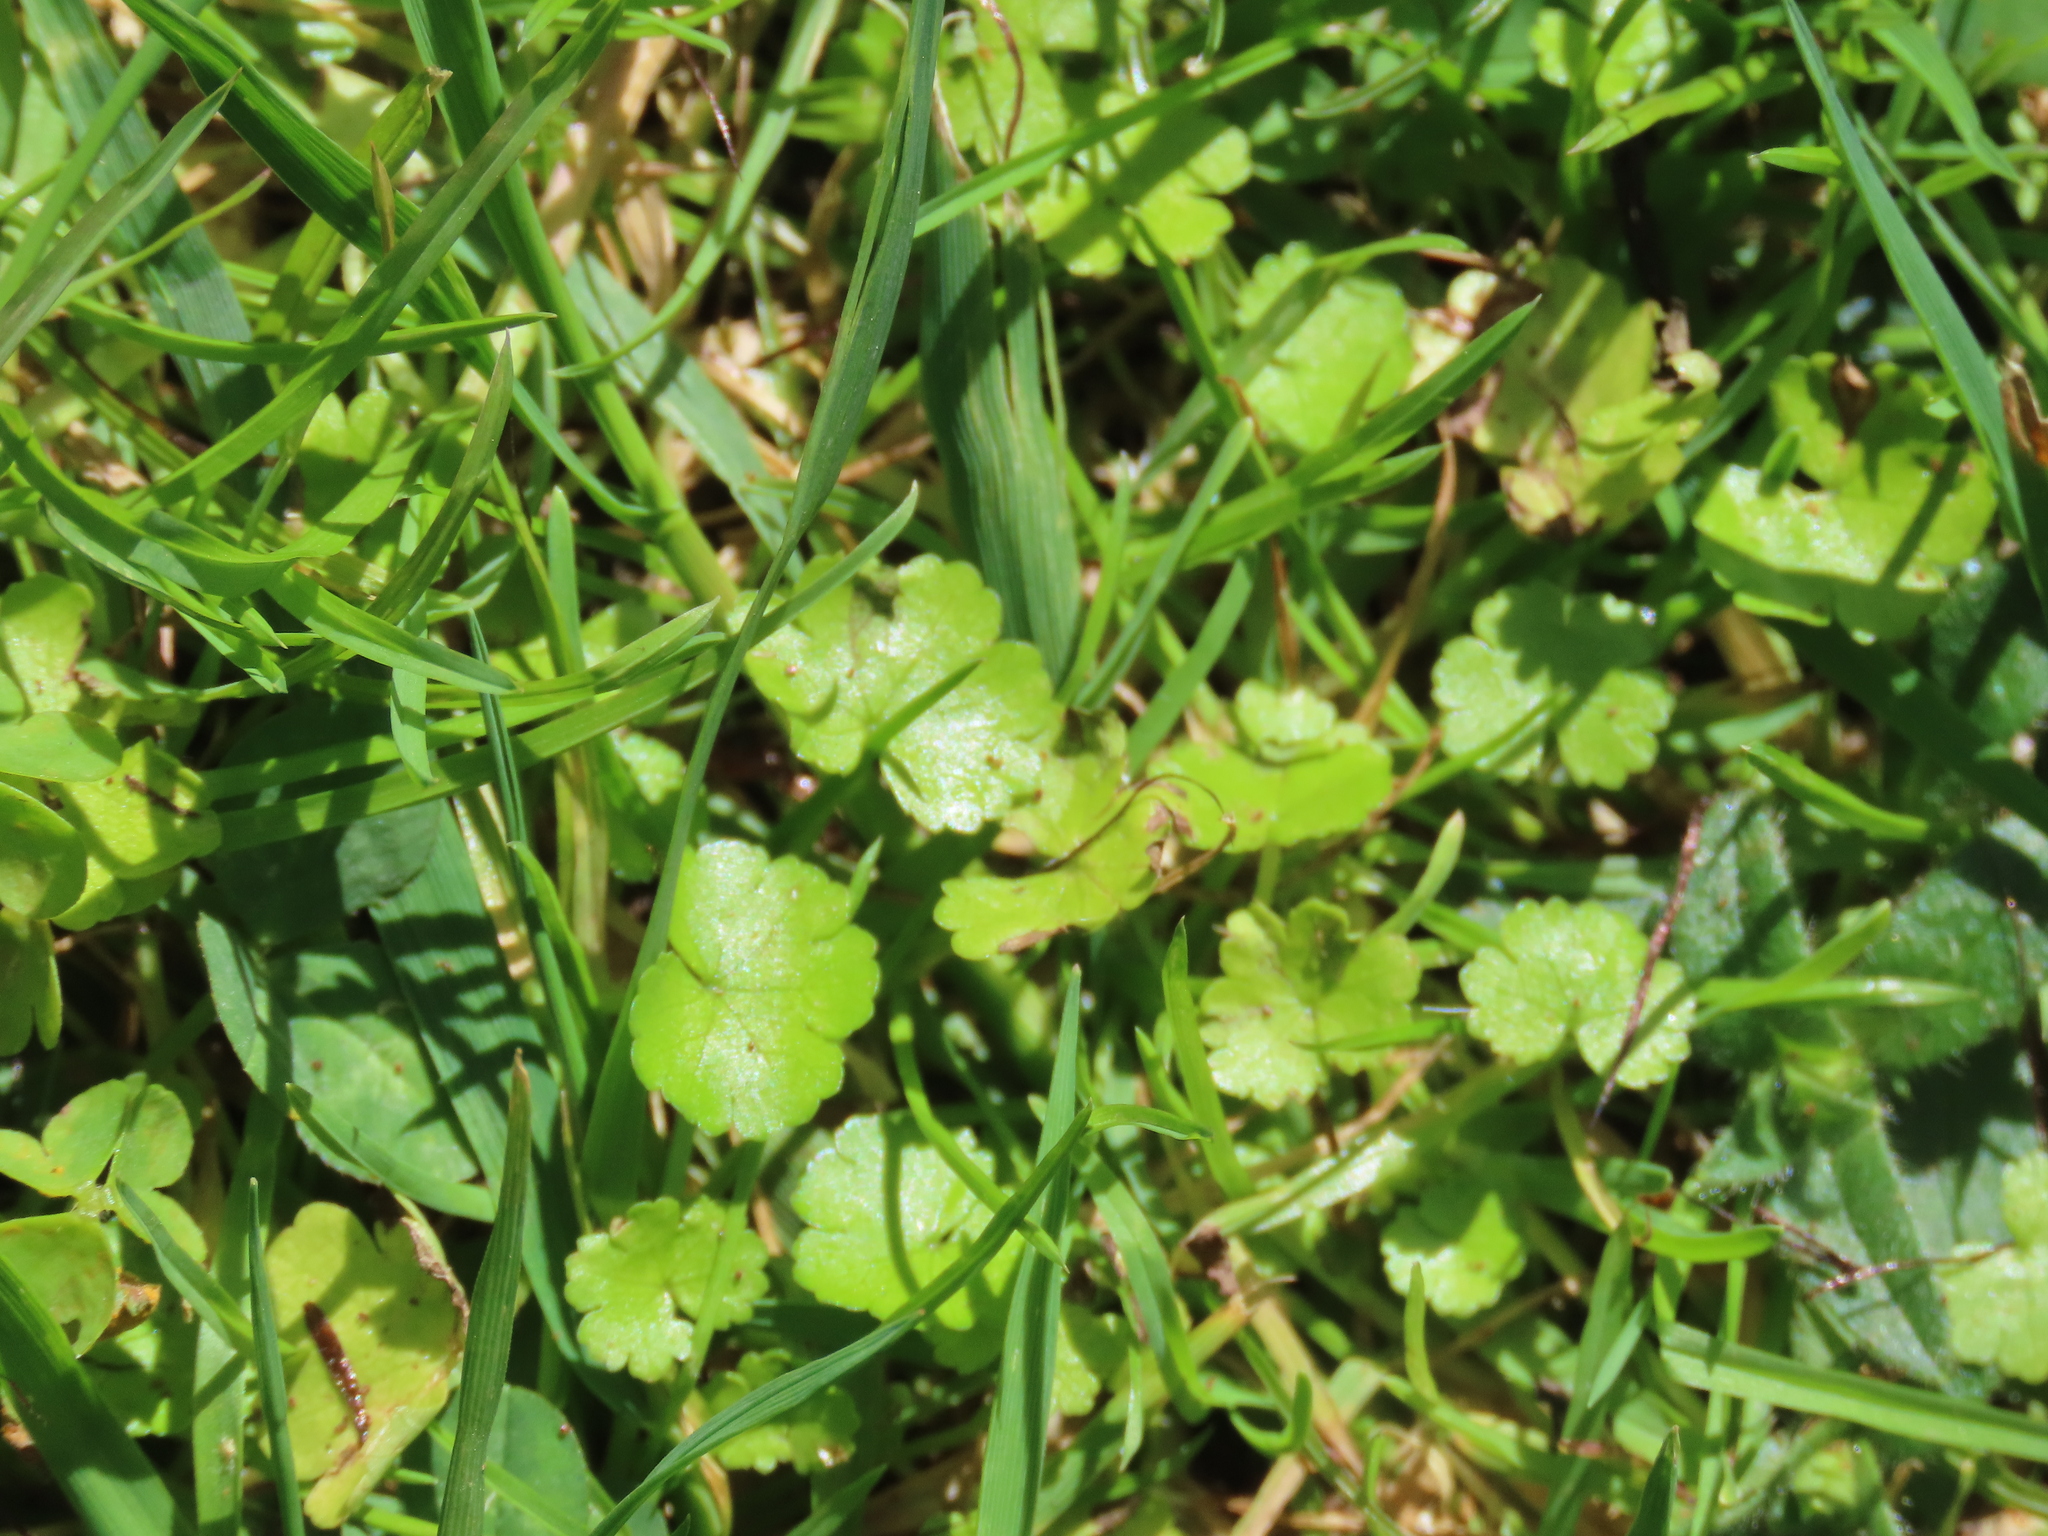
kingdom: Plantae
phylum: Tracheophyta
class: Magnoliopsida
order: Apiales
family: Araliaceae
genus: Hydrocotyle
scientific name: Hydrocotyle heteromeria
